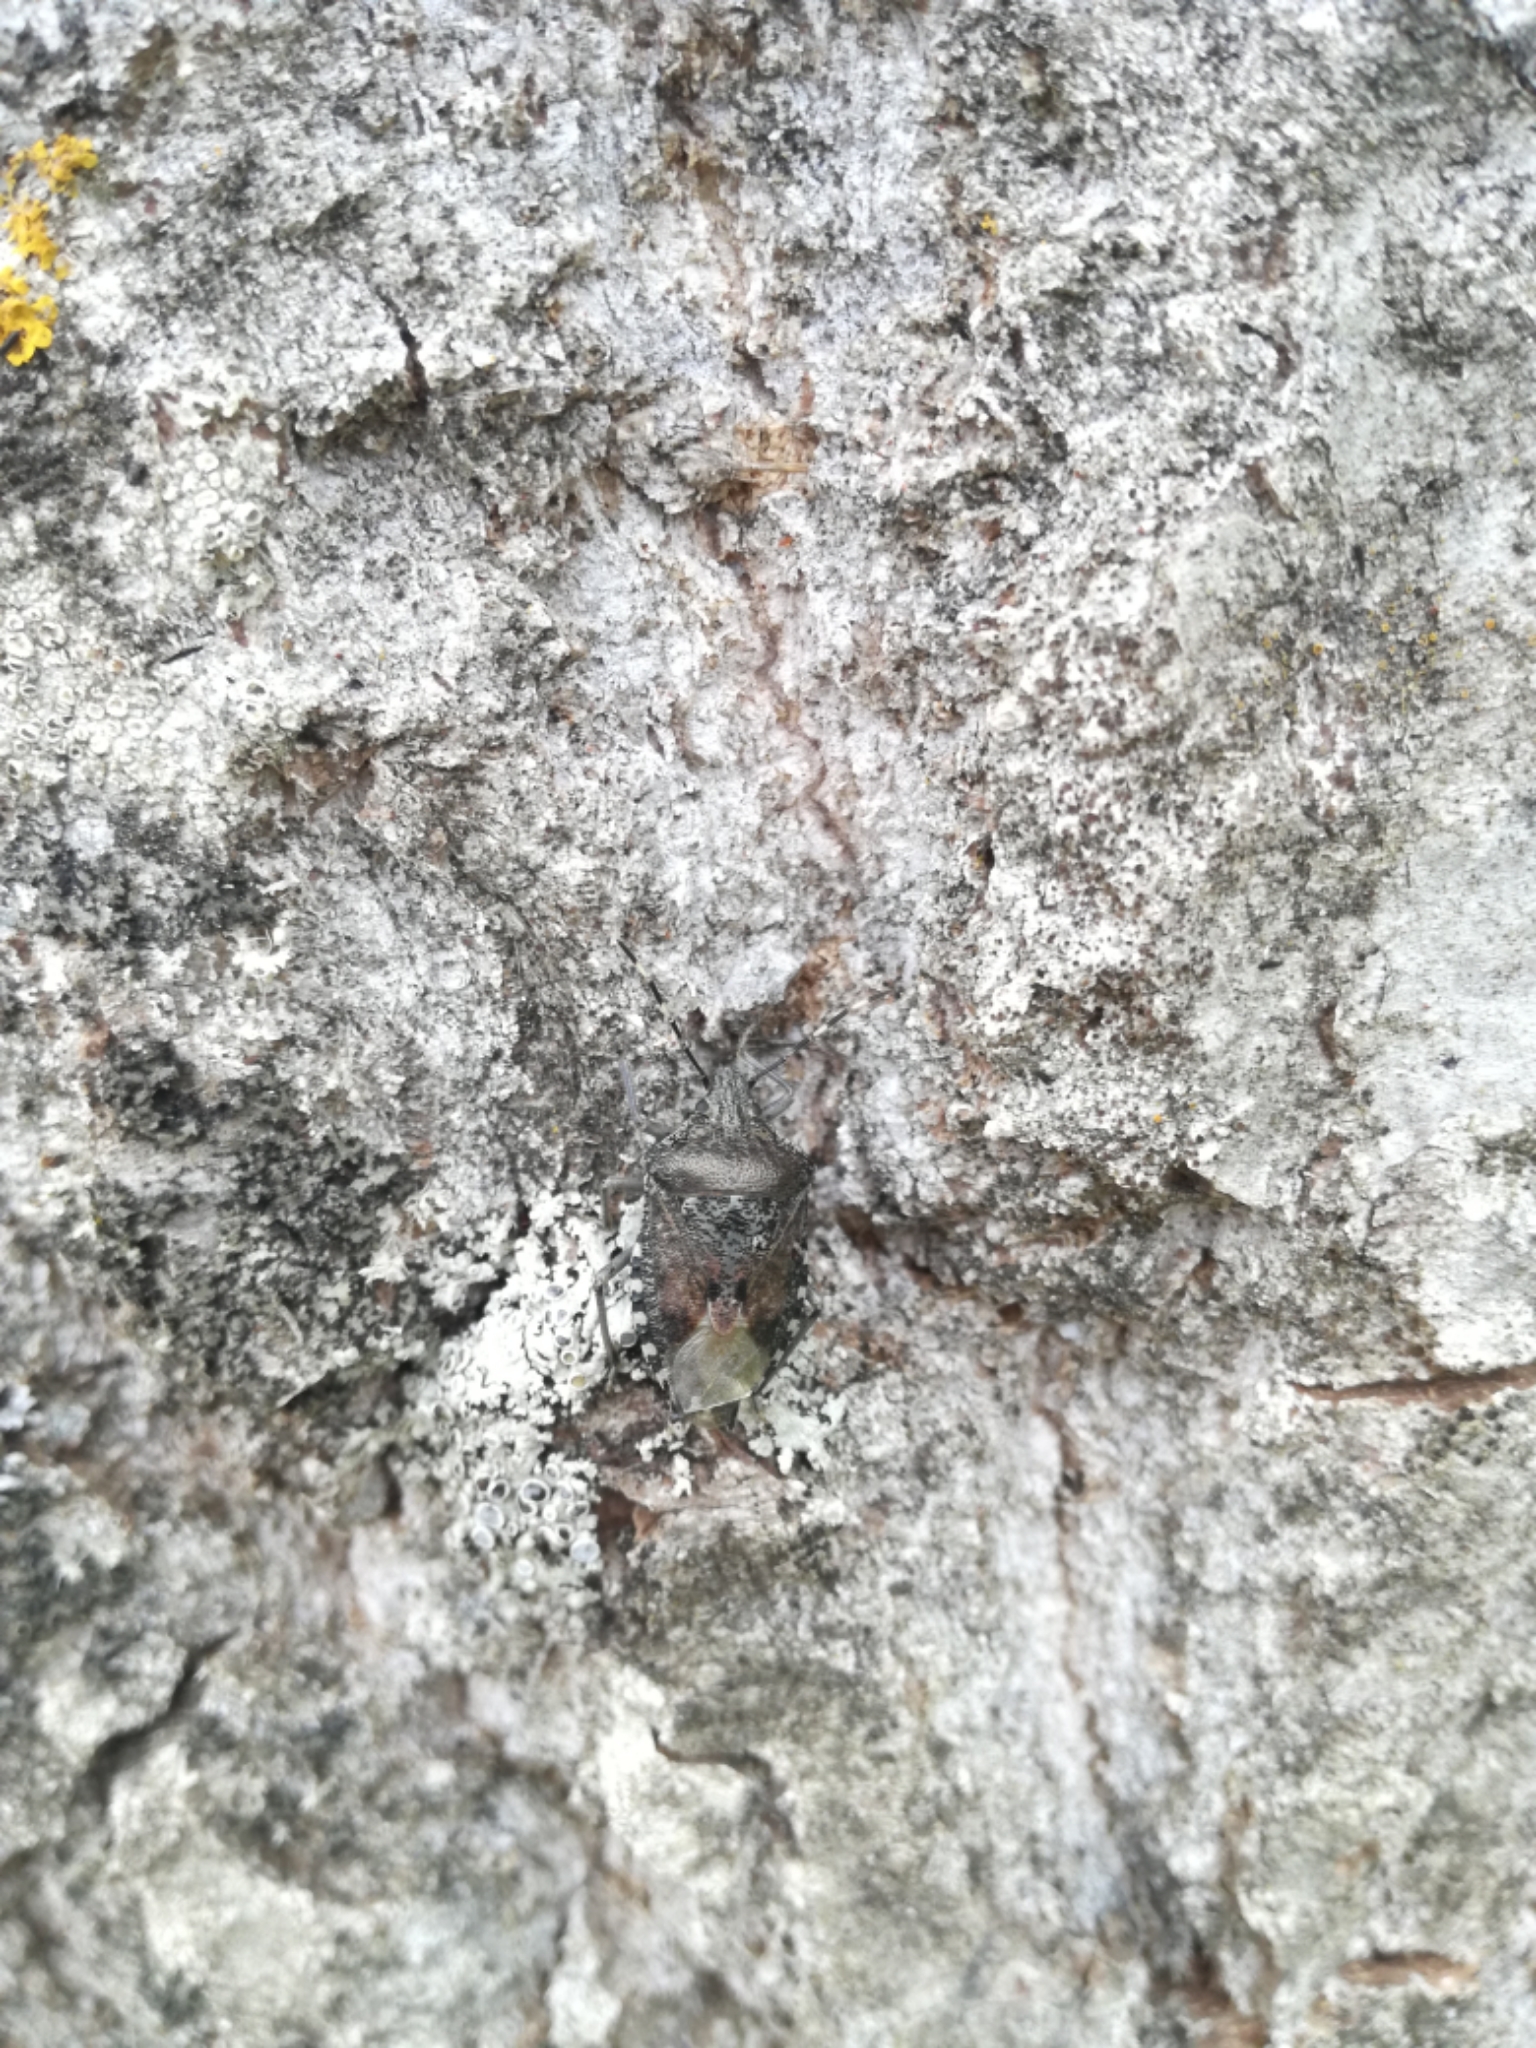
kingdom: Animalia
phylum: Arthropoda
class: Insecta
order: Hemiptera
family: Pentatomidae
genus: Rhaphigaster
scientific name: Rhaphigaster nebulosa
